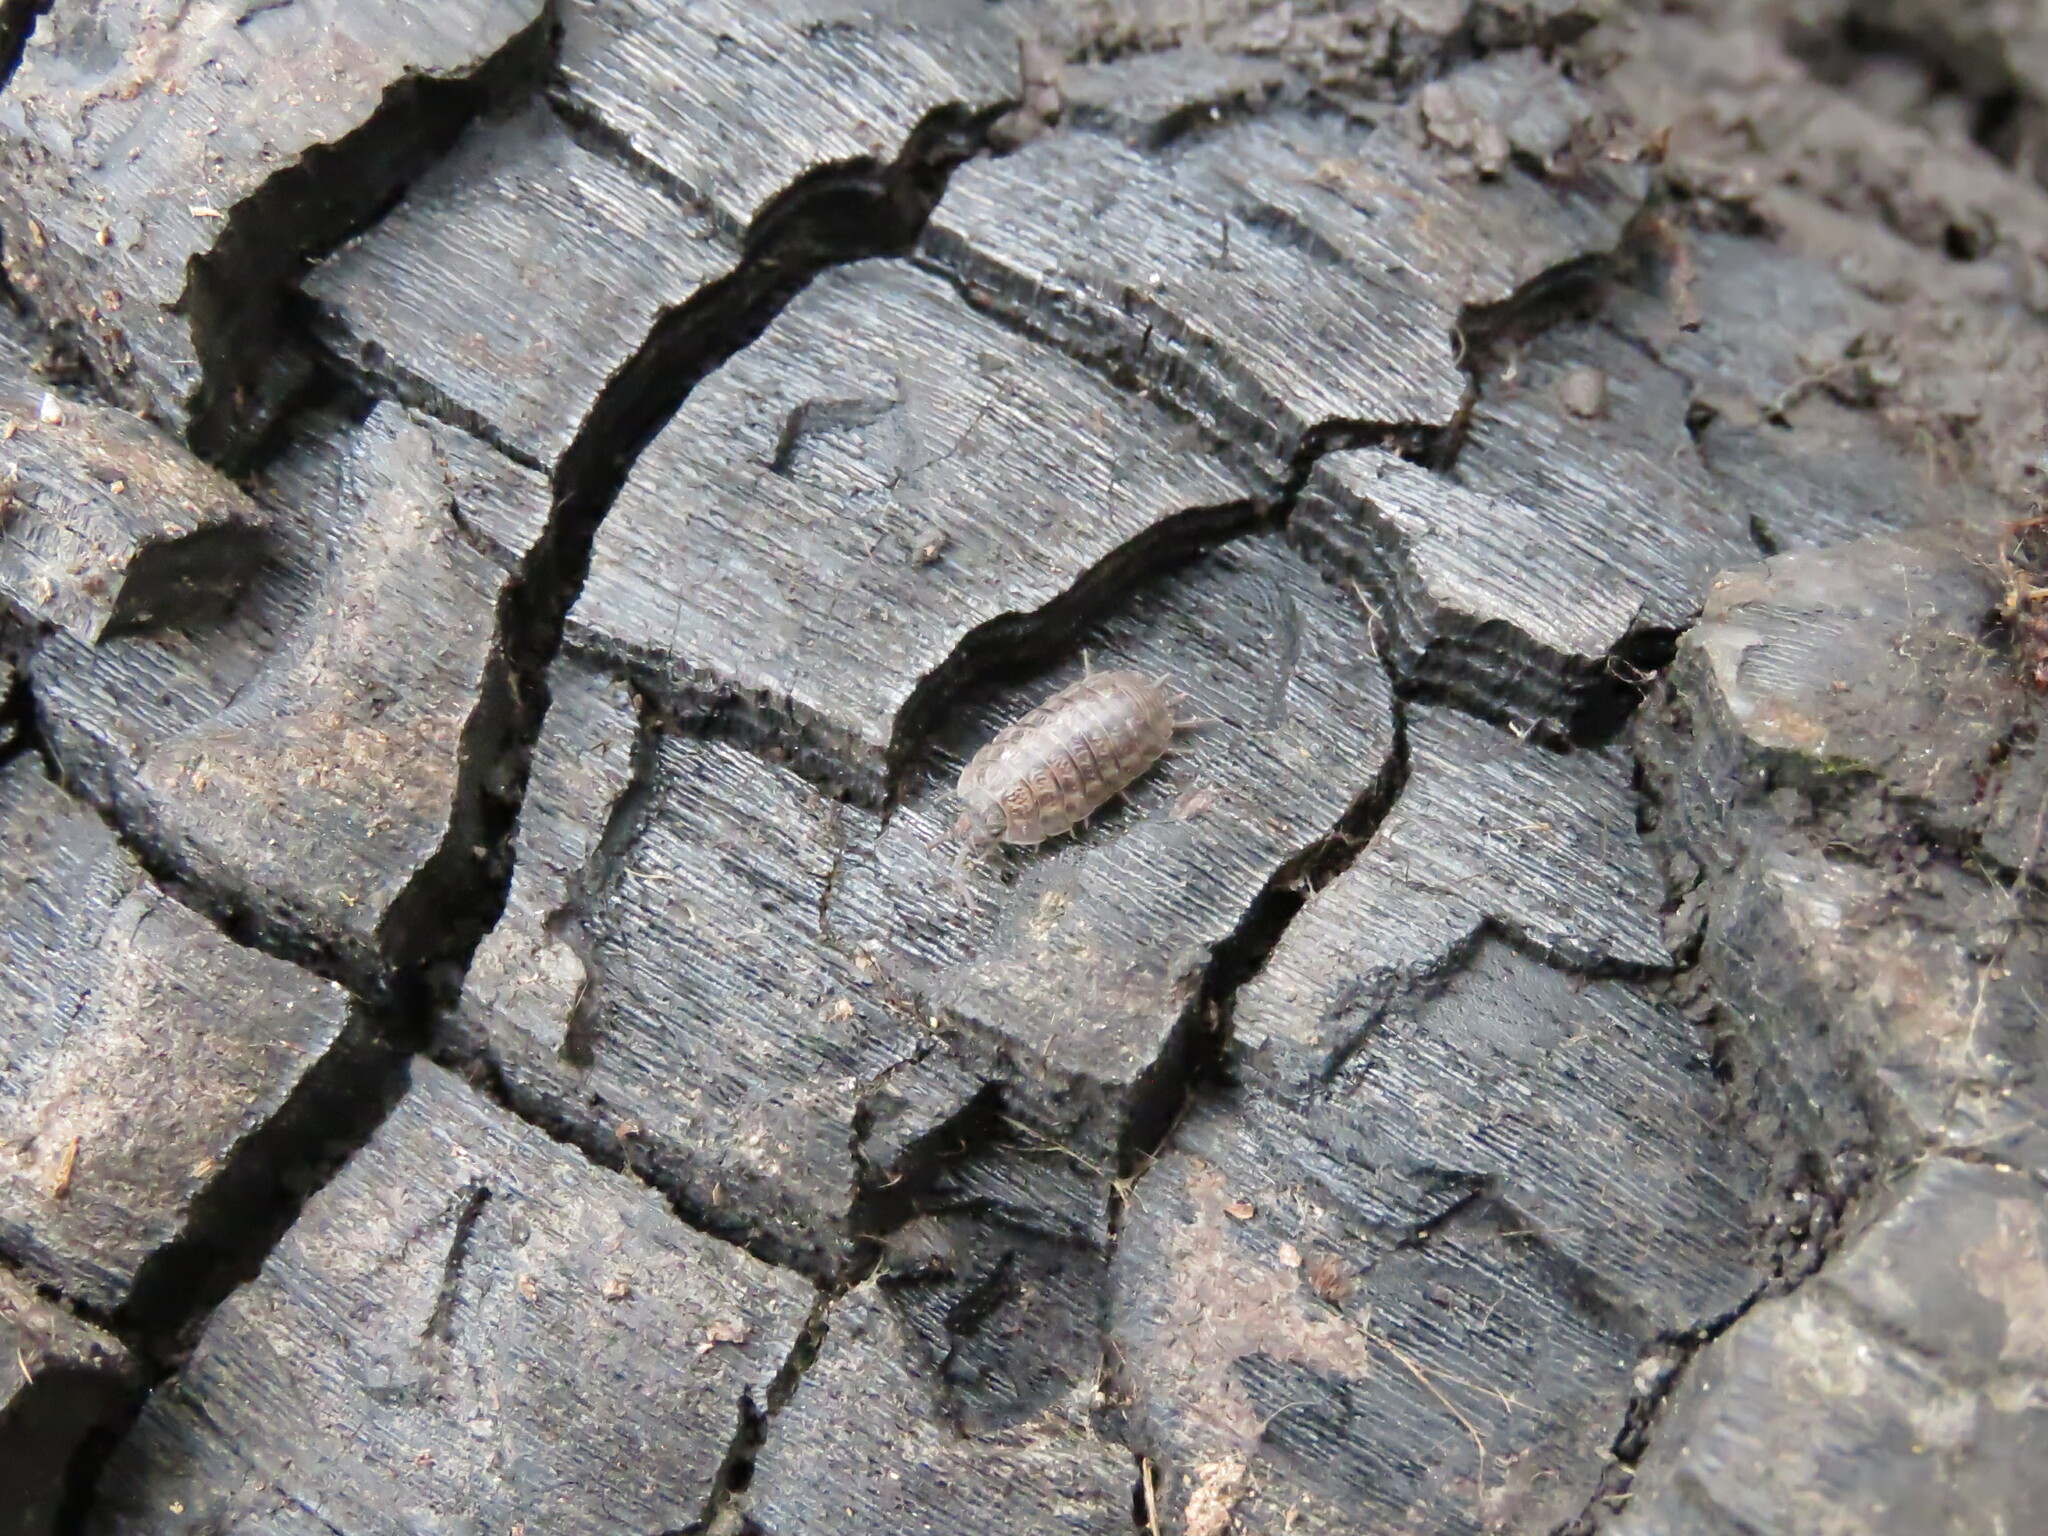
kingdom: Animalia
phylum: Arthropoda
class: Malacostraca
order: Isopoda
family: Trachelipodidae
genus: Trachelipus
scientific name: Trachelipus rathkii
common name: Isopod
